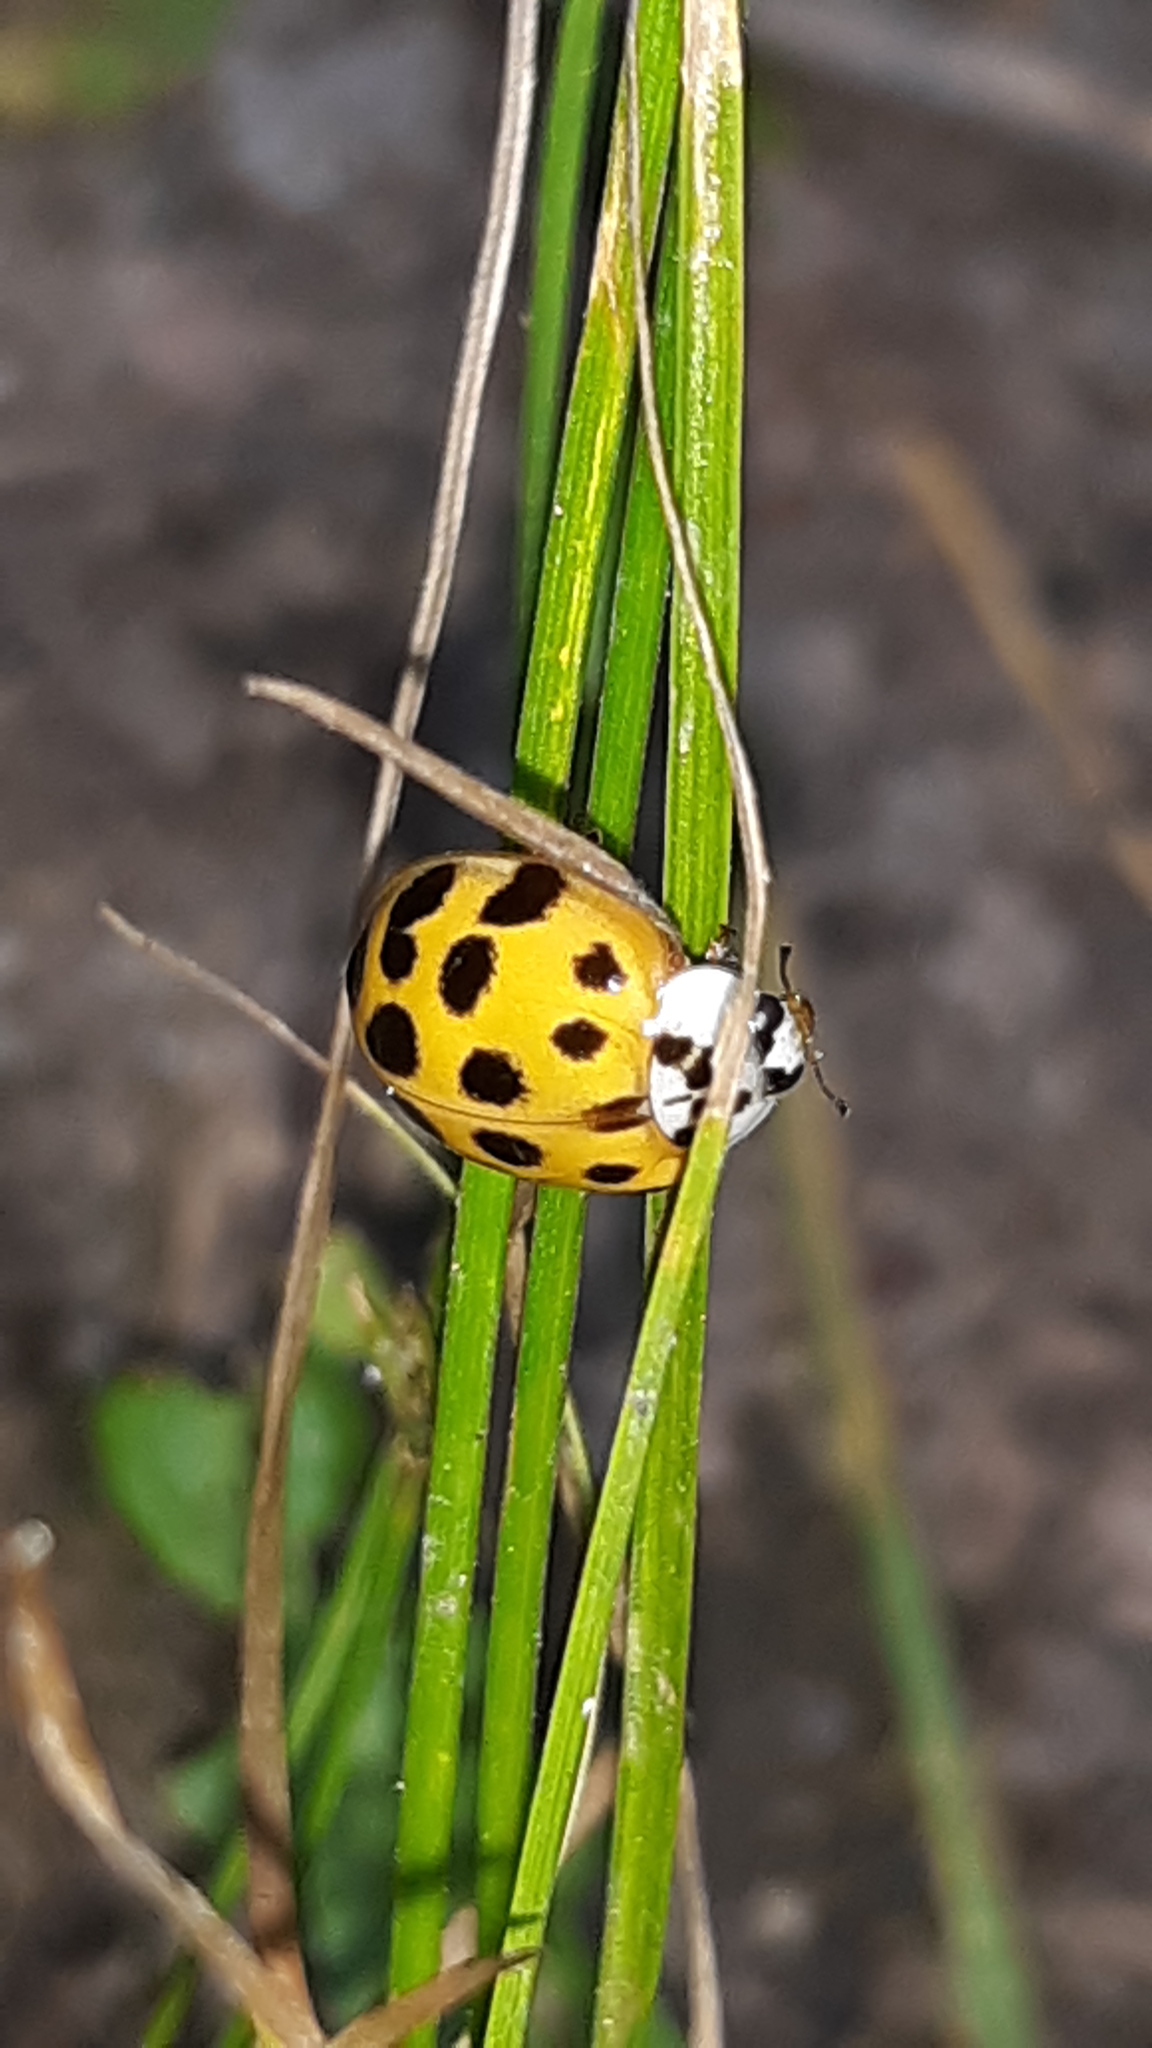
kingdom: Animalia
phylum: Arthropoda
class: Insecta
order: Coleoptera
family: Coccinellidae
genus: Harmonia
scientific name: Harmonia axyridis
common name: Harlequin ladybird
